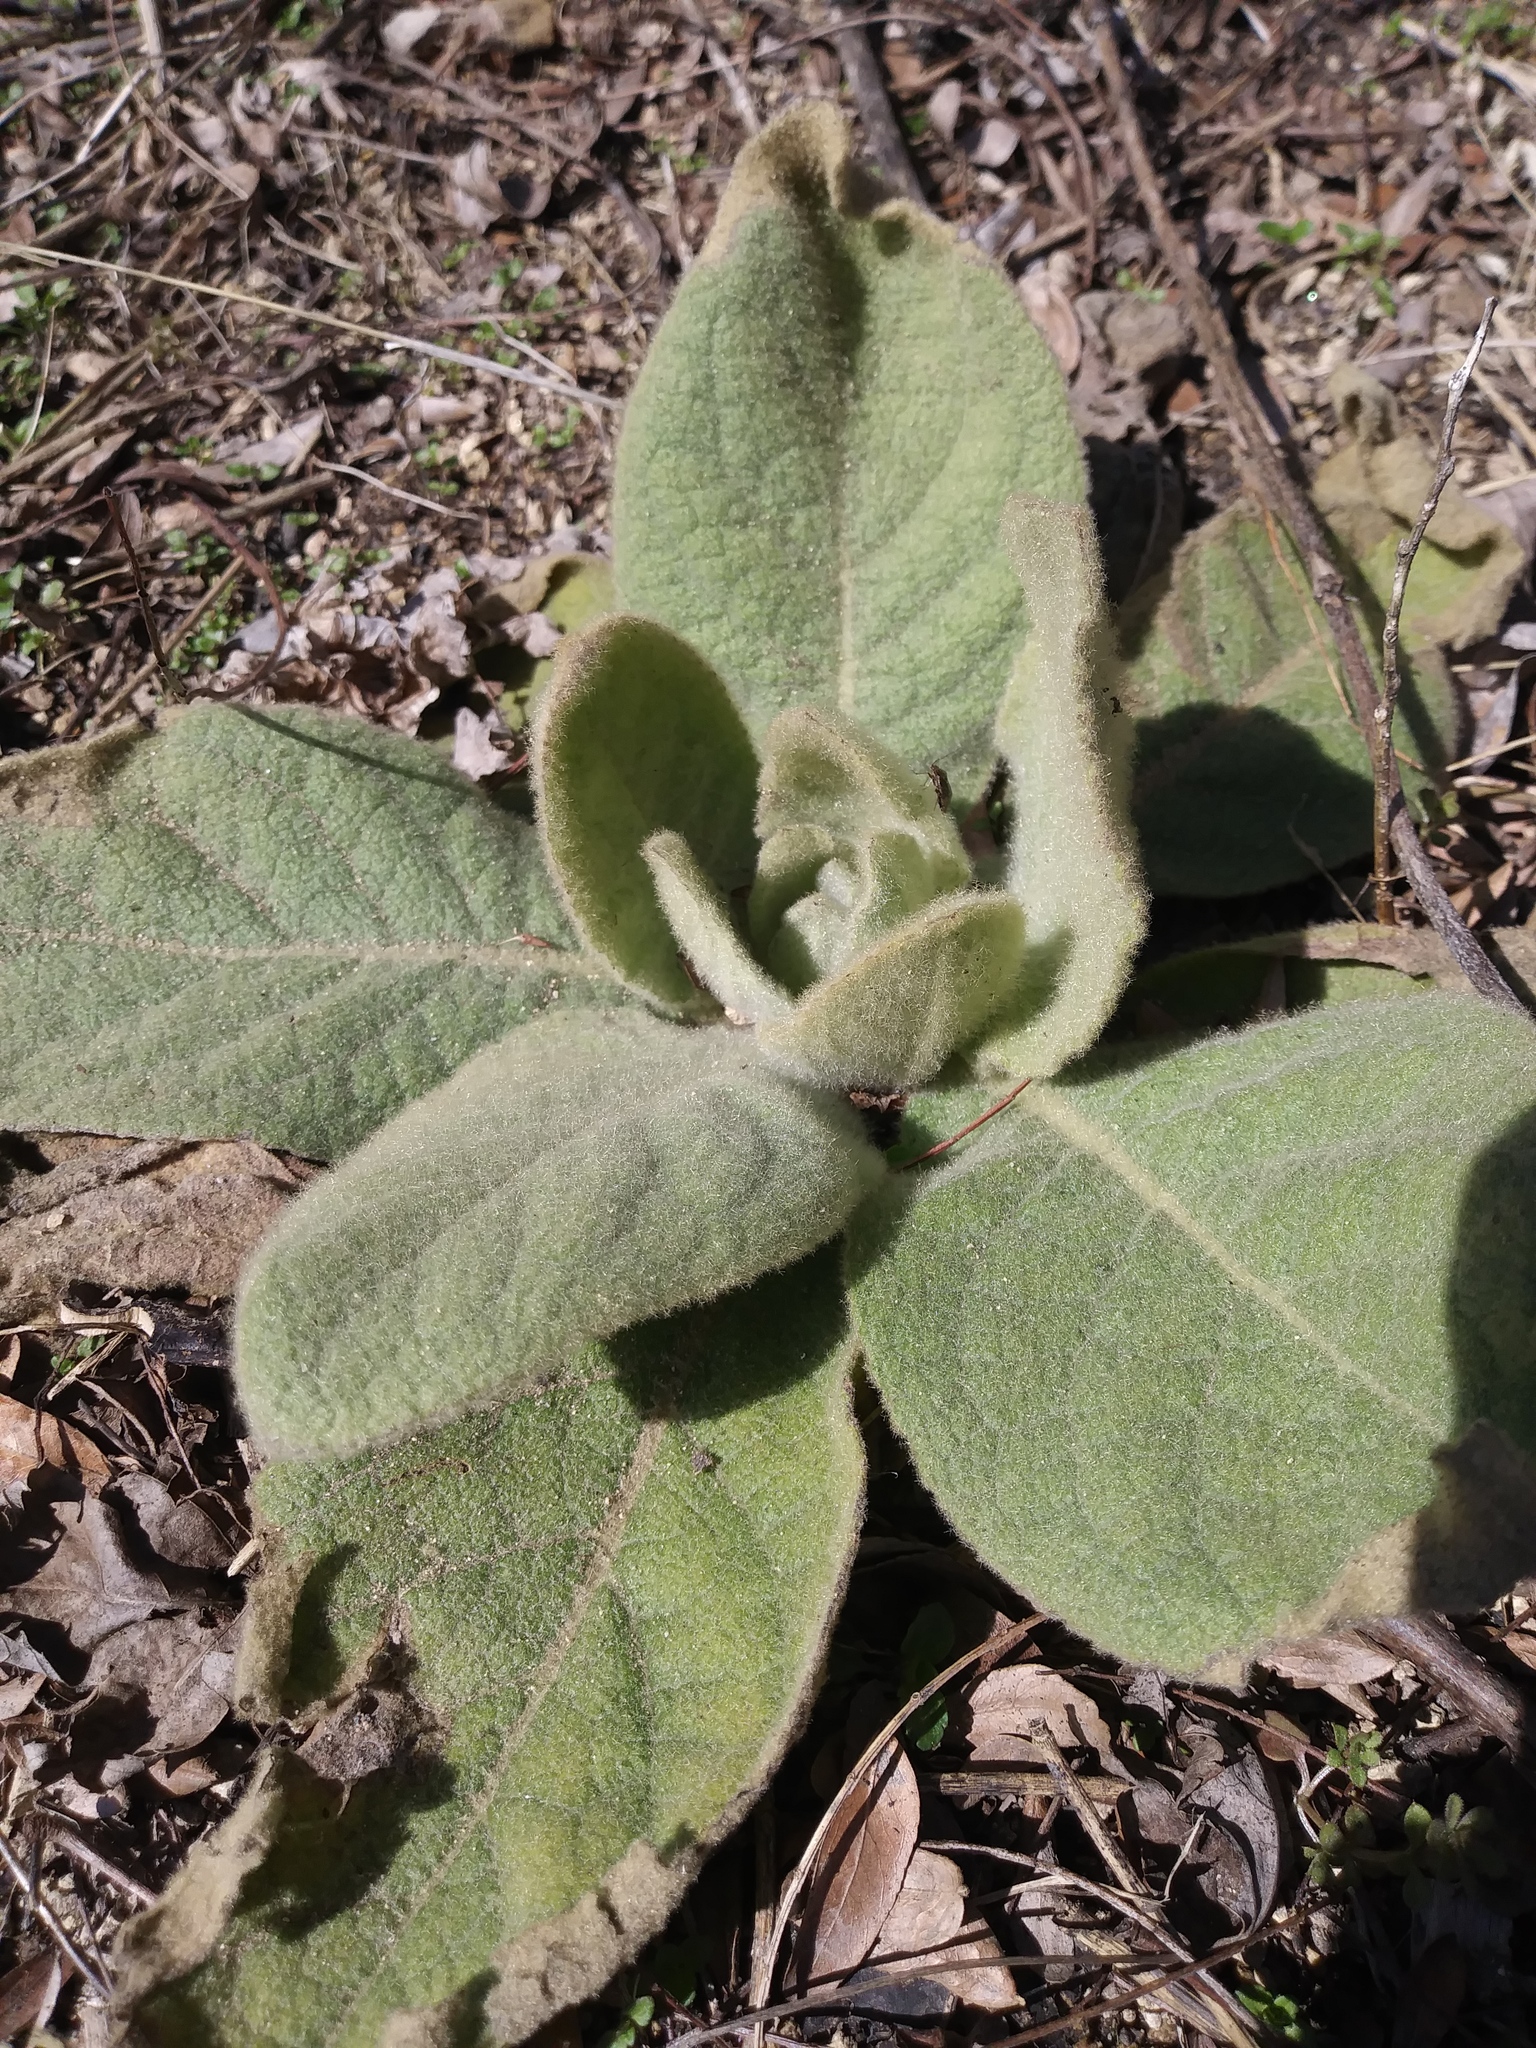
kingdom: Plantae
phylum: Tracheophyta
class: Magnoliopsida
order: Lamiales
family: Scrophulariaceae
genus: Verbascum
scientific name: Verbascum thapsus
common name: Common mullein
